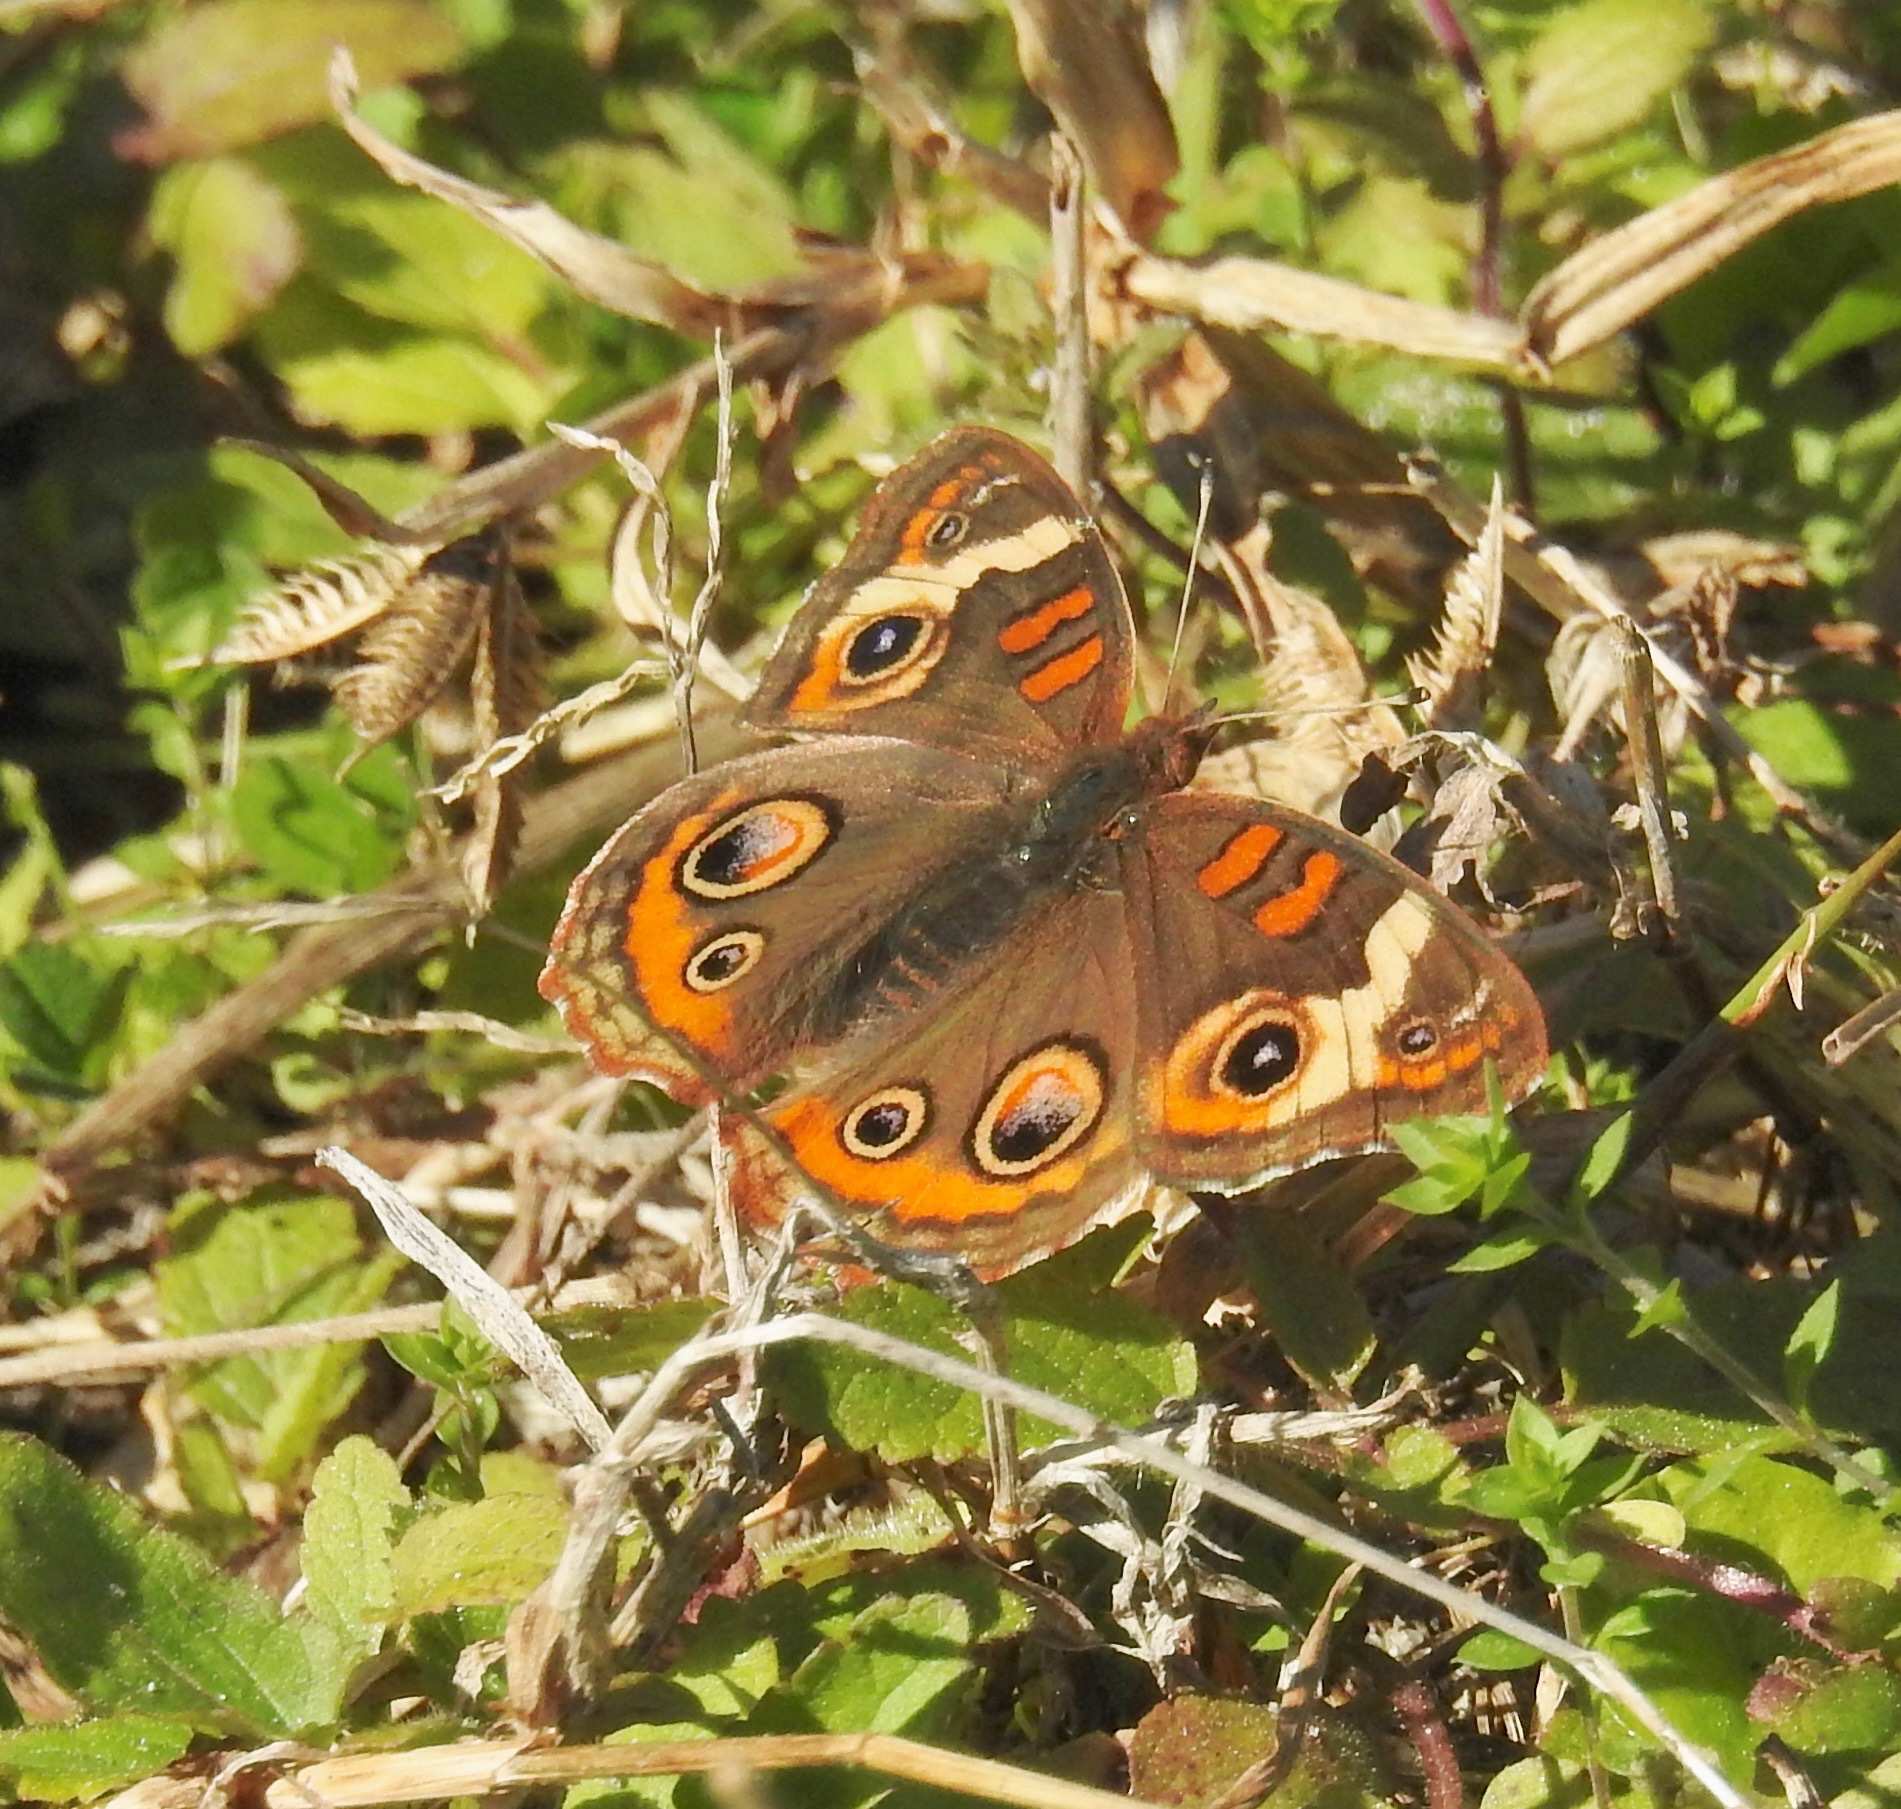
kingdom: Animalia
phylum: Arthropoda
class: Insecta
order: Lepidoptera
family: Nymphalidae
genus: Junonia
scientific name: Junonia coenia
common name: Common buckeye
